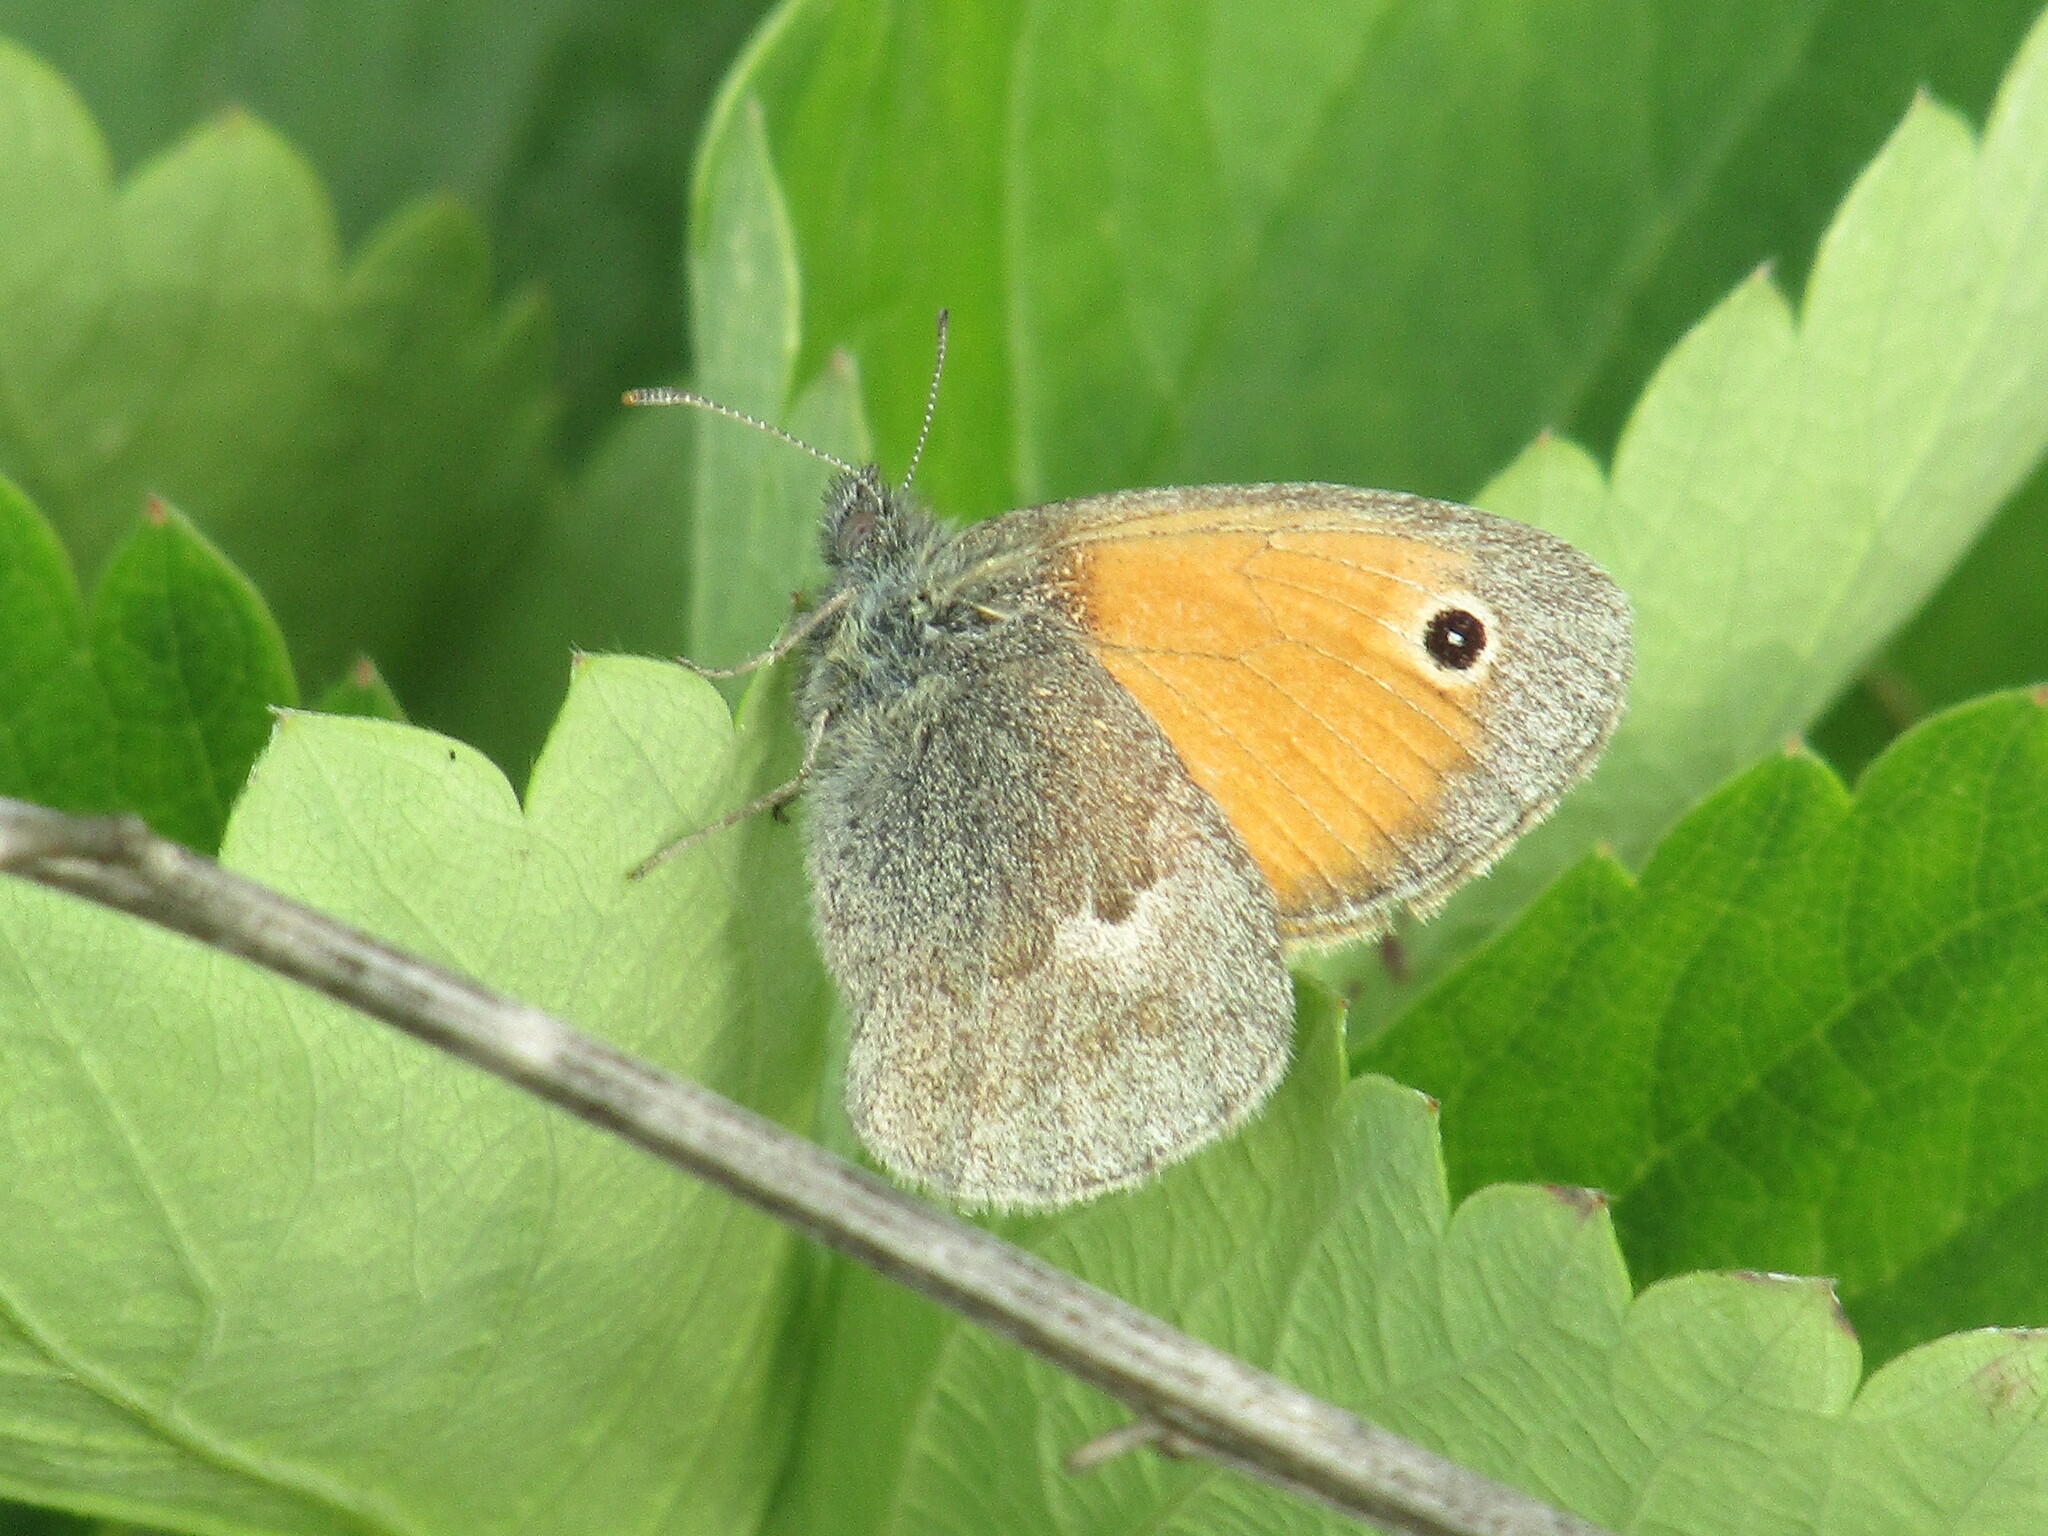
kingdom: Animalia
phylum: Arthropoda
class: Insecta
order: Lepidoptera
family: Nymphalidae
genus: Coenonympha
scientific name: Coenonympha pamphilus
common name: Small heath
